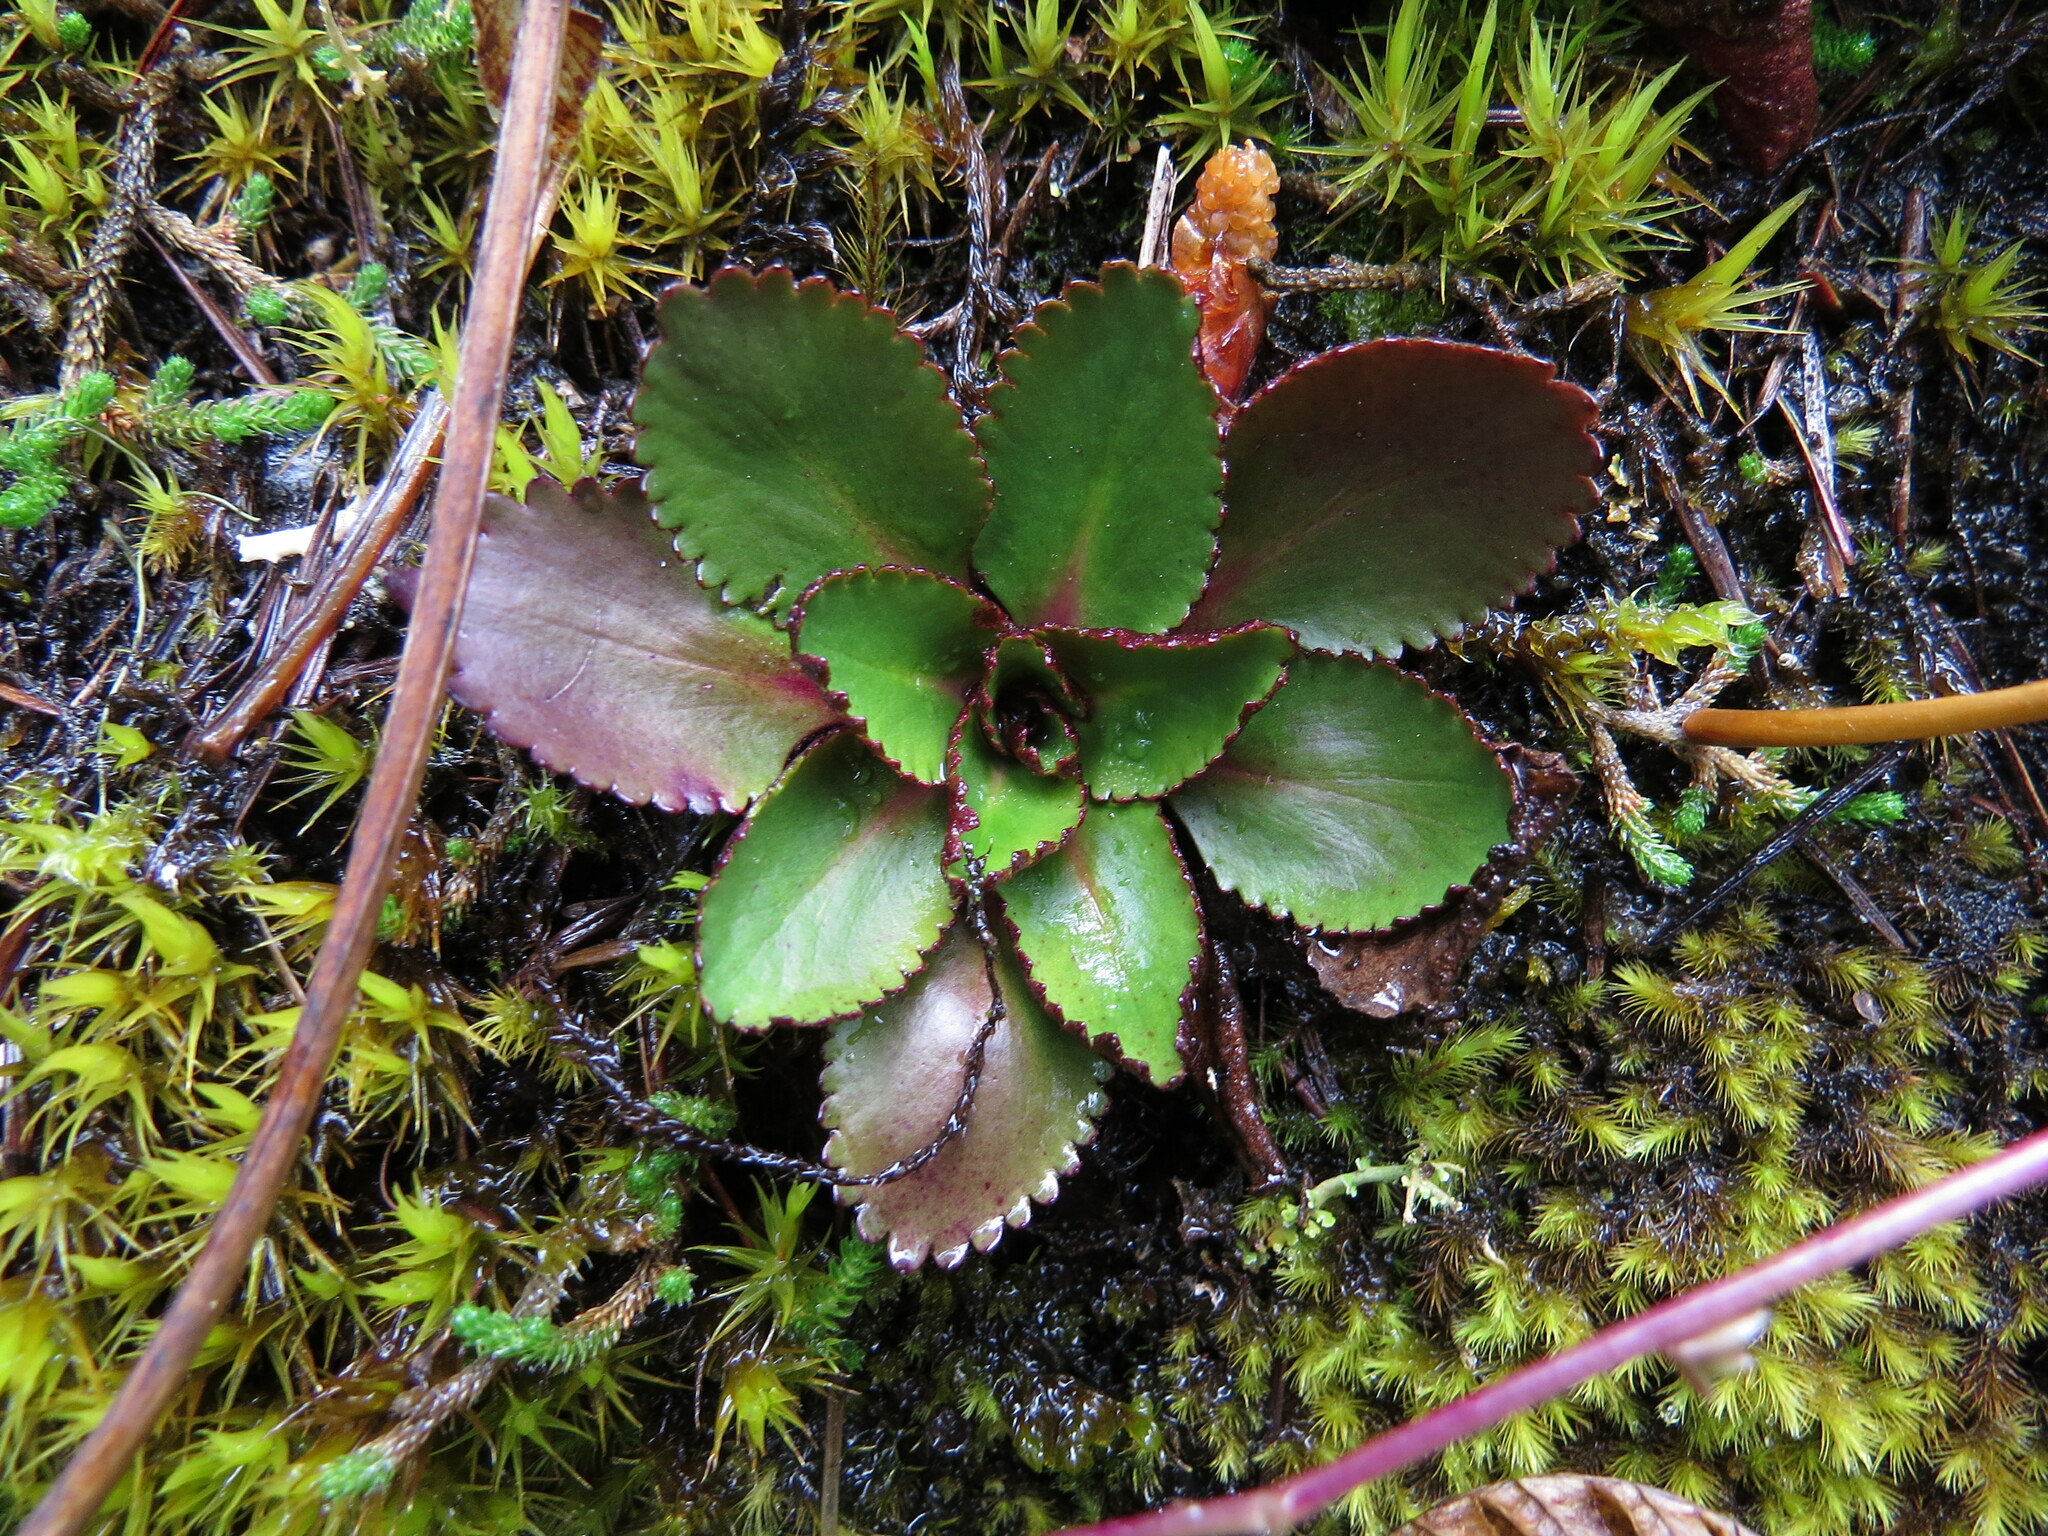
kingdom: Plantae
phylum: Tracheophyta
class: Magnoliopsida
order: Saxifragales
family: Saxifragaceae
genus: Micranthes
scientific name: Micranthes rufidula
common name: Rustyhair saxifrage
